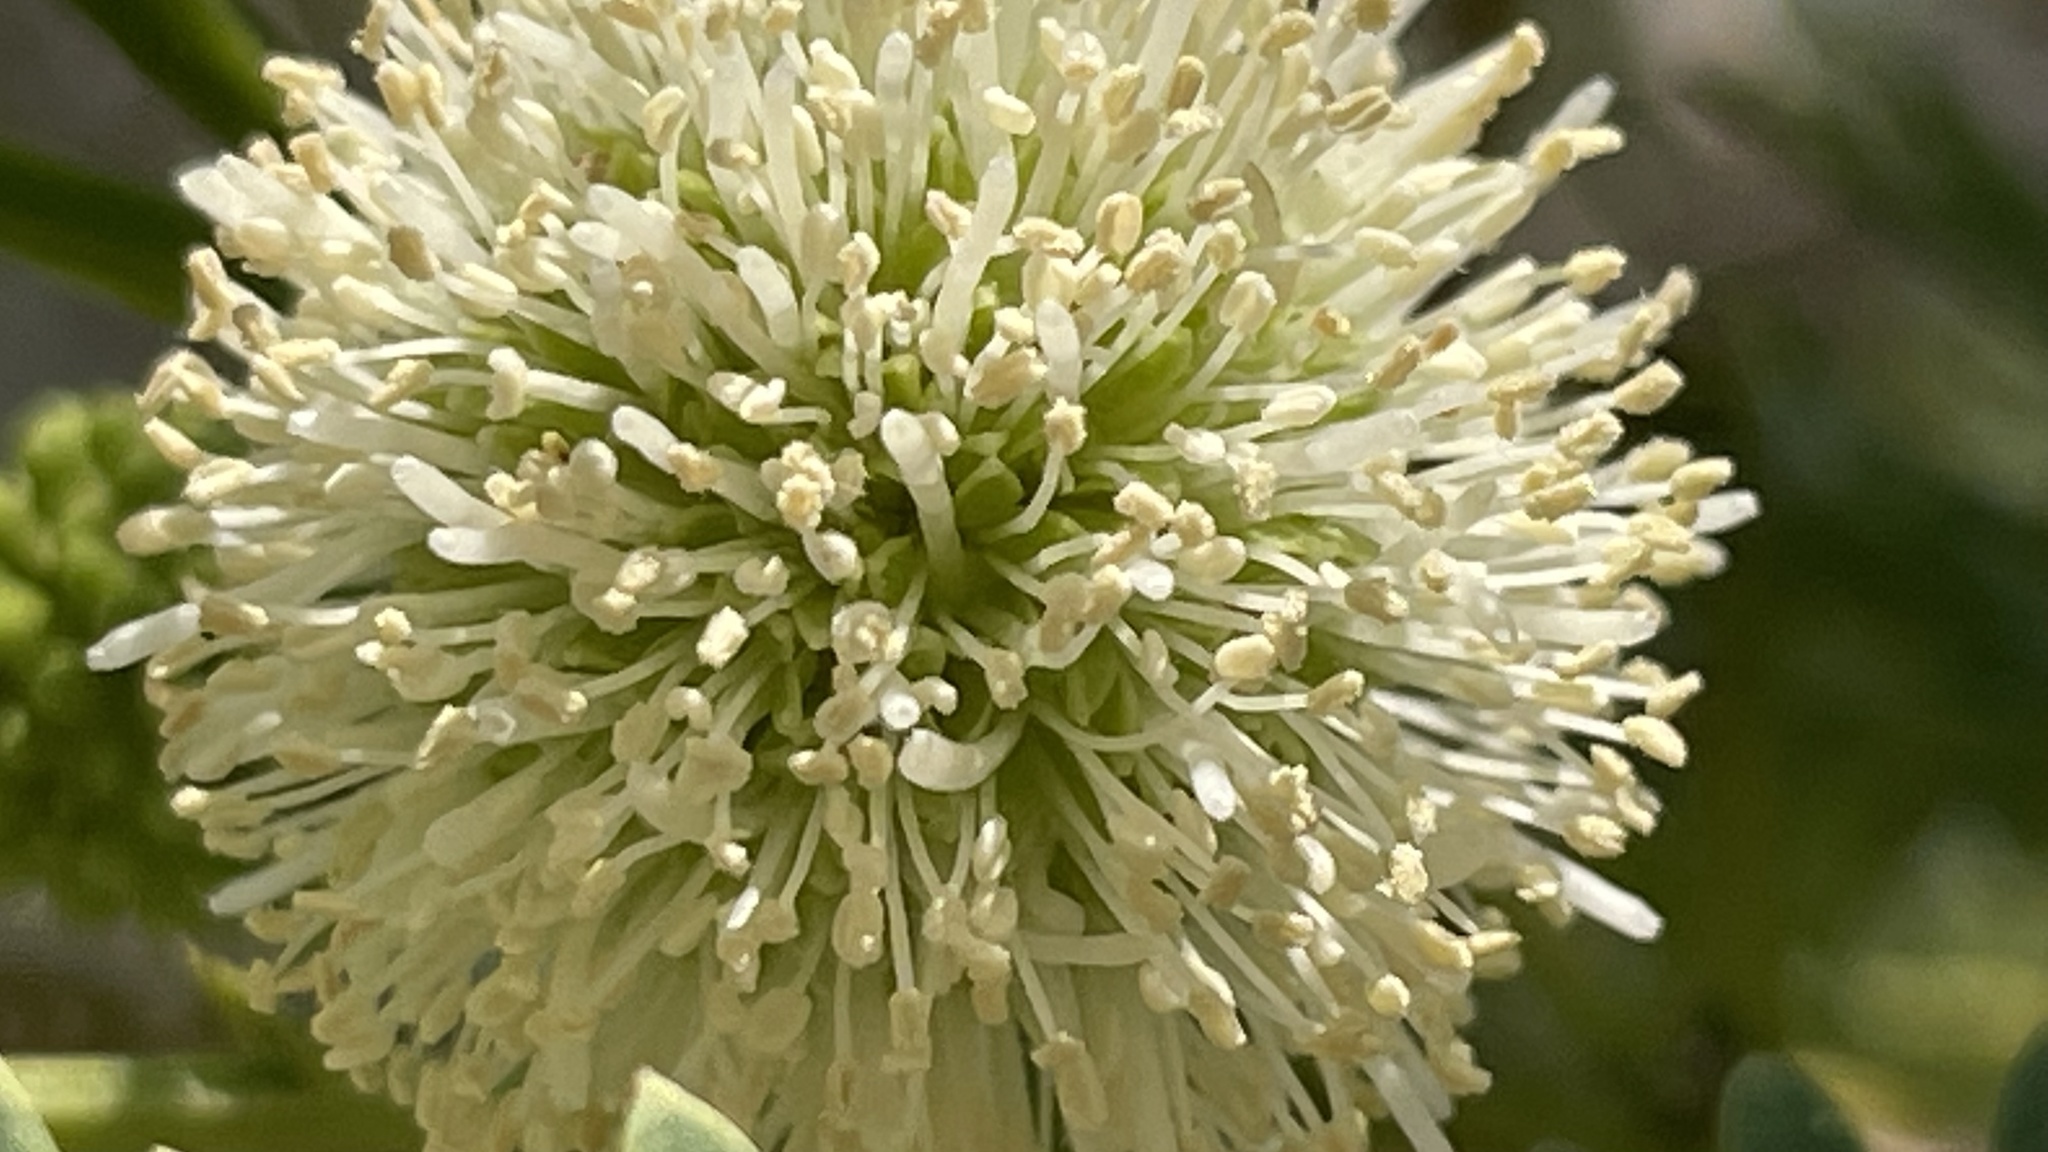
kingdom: Plantae
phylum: Tracheophyta
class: Magnoliopsida
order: Fabales
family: Fabaceae
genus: Leucaena
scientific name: Leucaena leucocephala
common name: White leadtree
